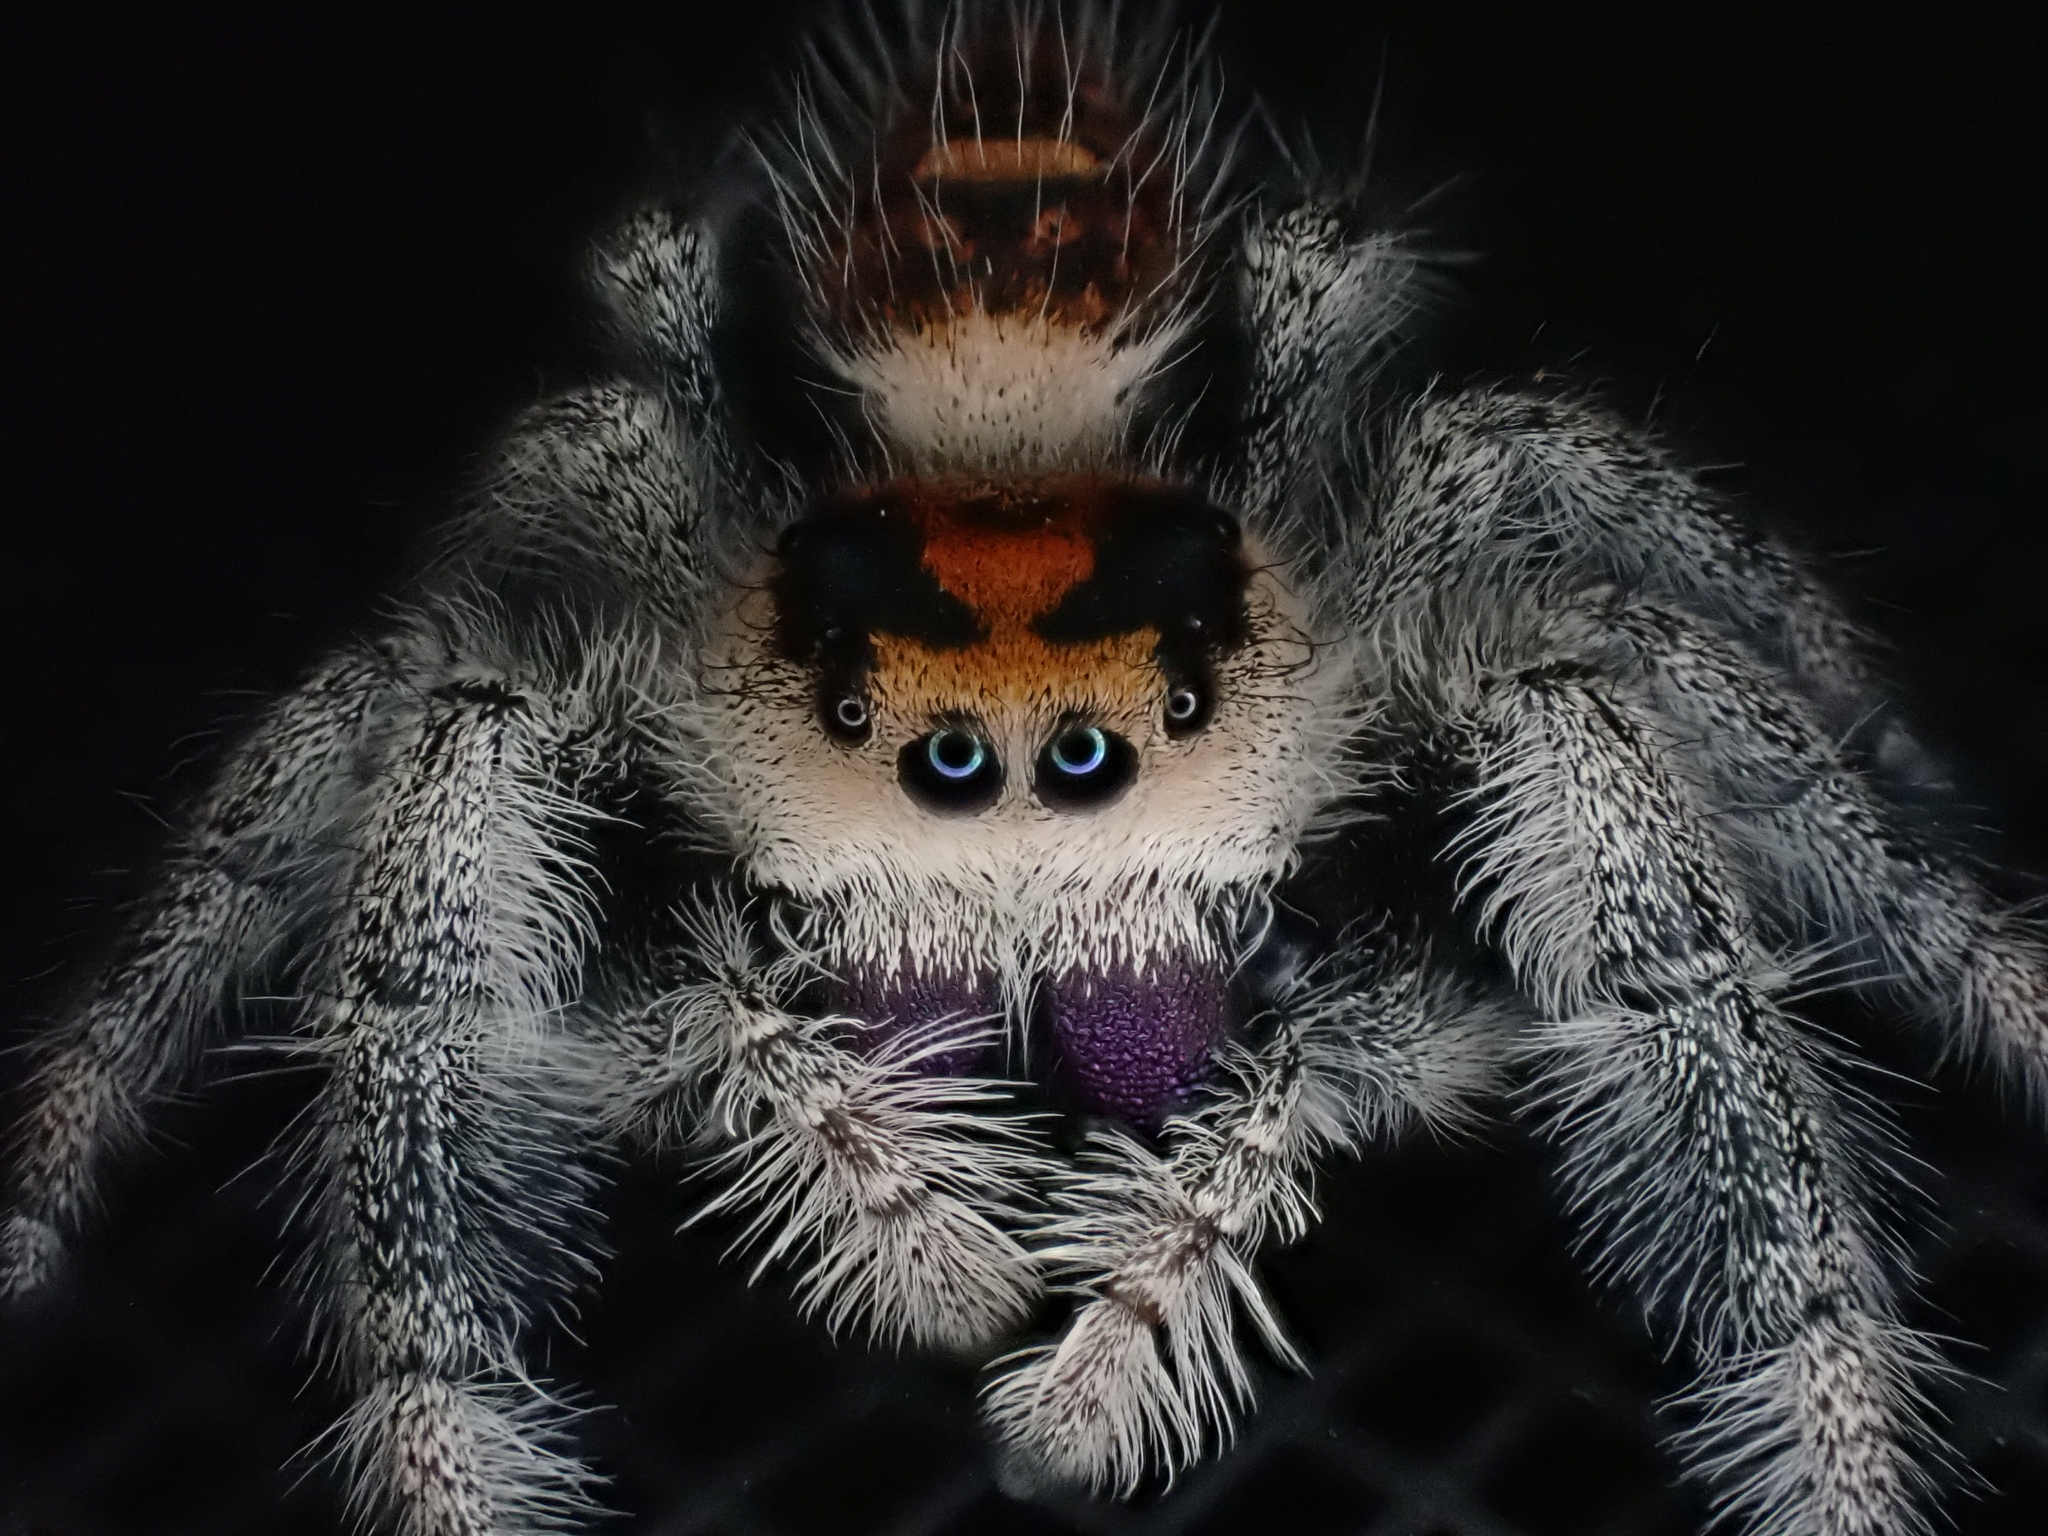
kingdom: Animalia
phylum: Arthropoda
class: Arachnida
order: Araneae
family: Salticidae
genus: Phidippus
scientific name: Phidippus regius
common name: Regal jumper
